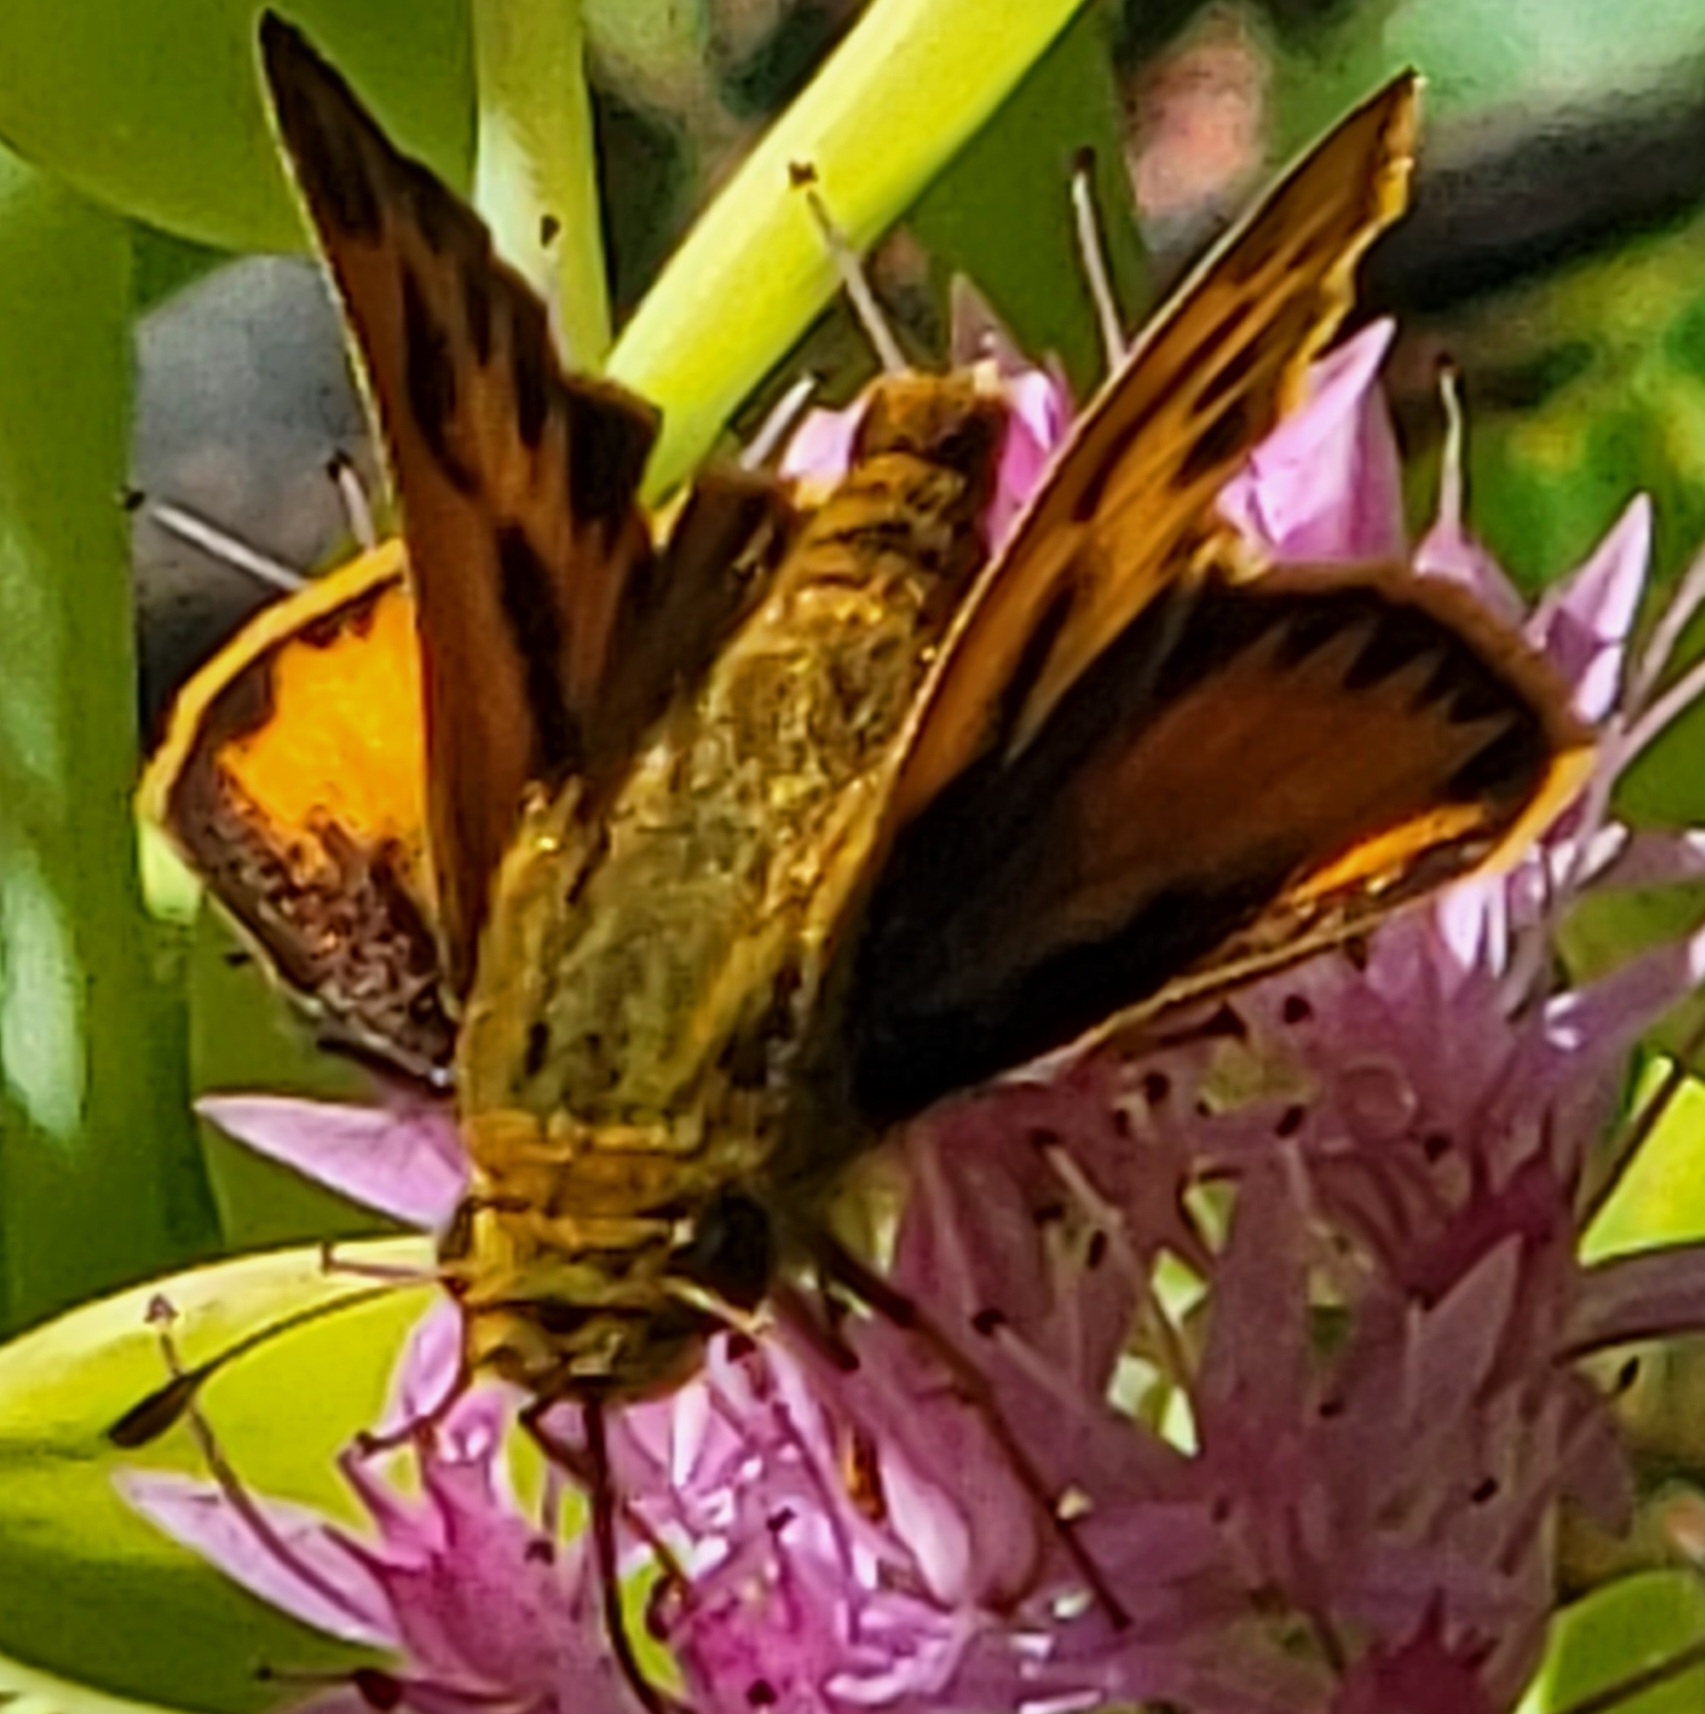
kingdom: Animalia
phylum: Arthropoda
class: Insecta
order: Lepidoptera
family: Hesperiidae
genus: Hylephila
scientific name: Hylephila phyleus
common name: Fiery skipper
